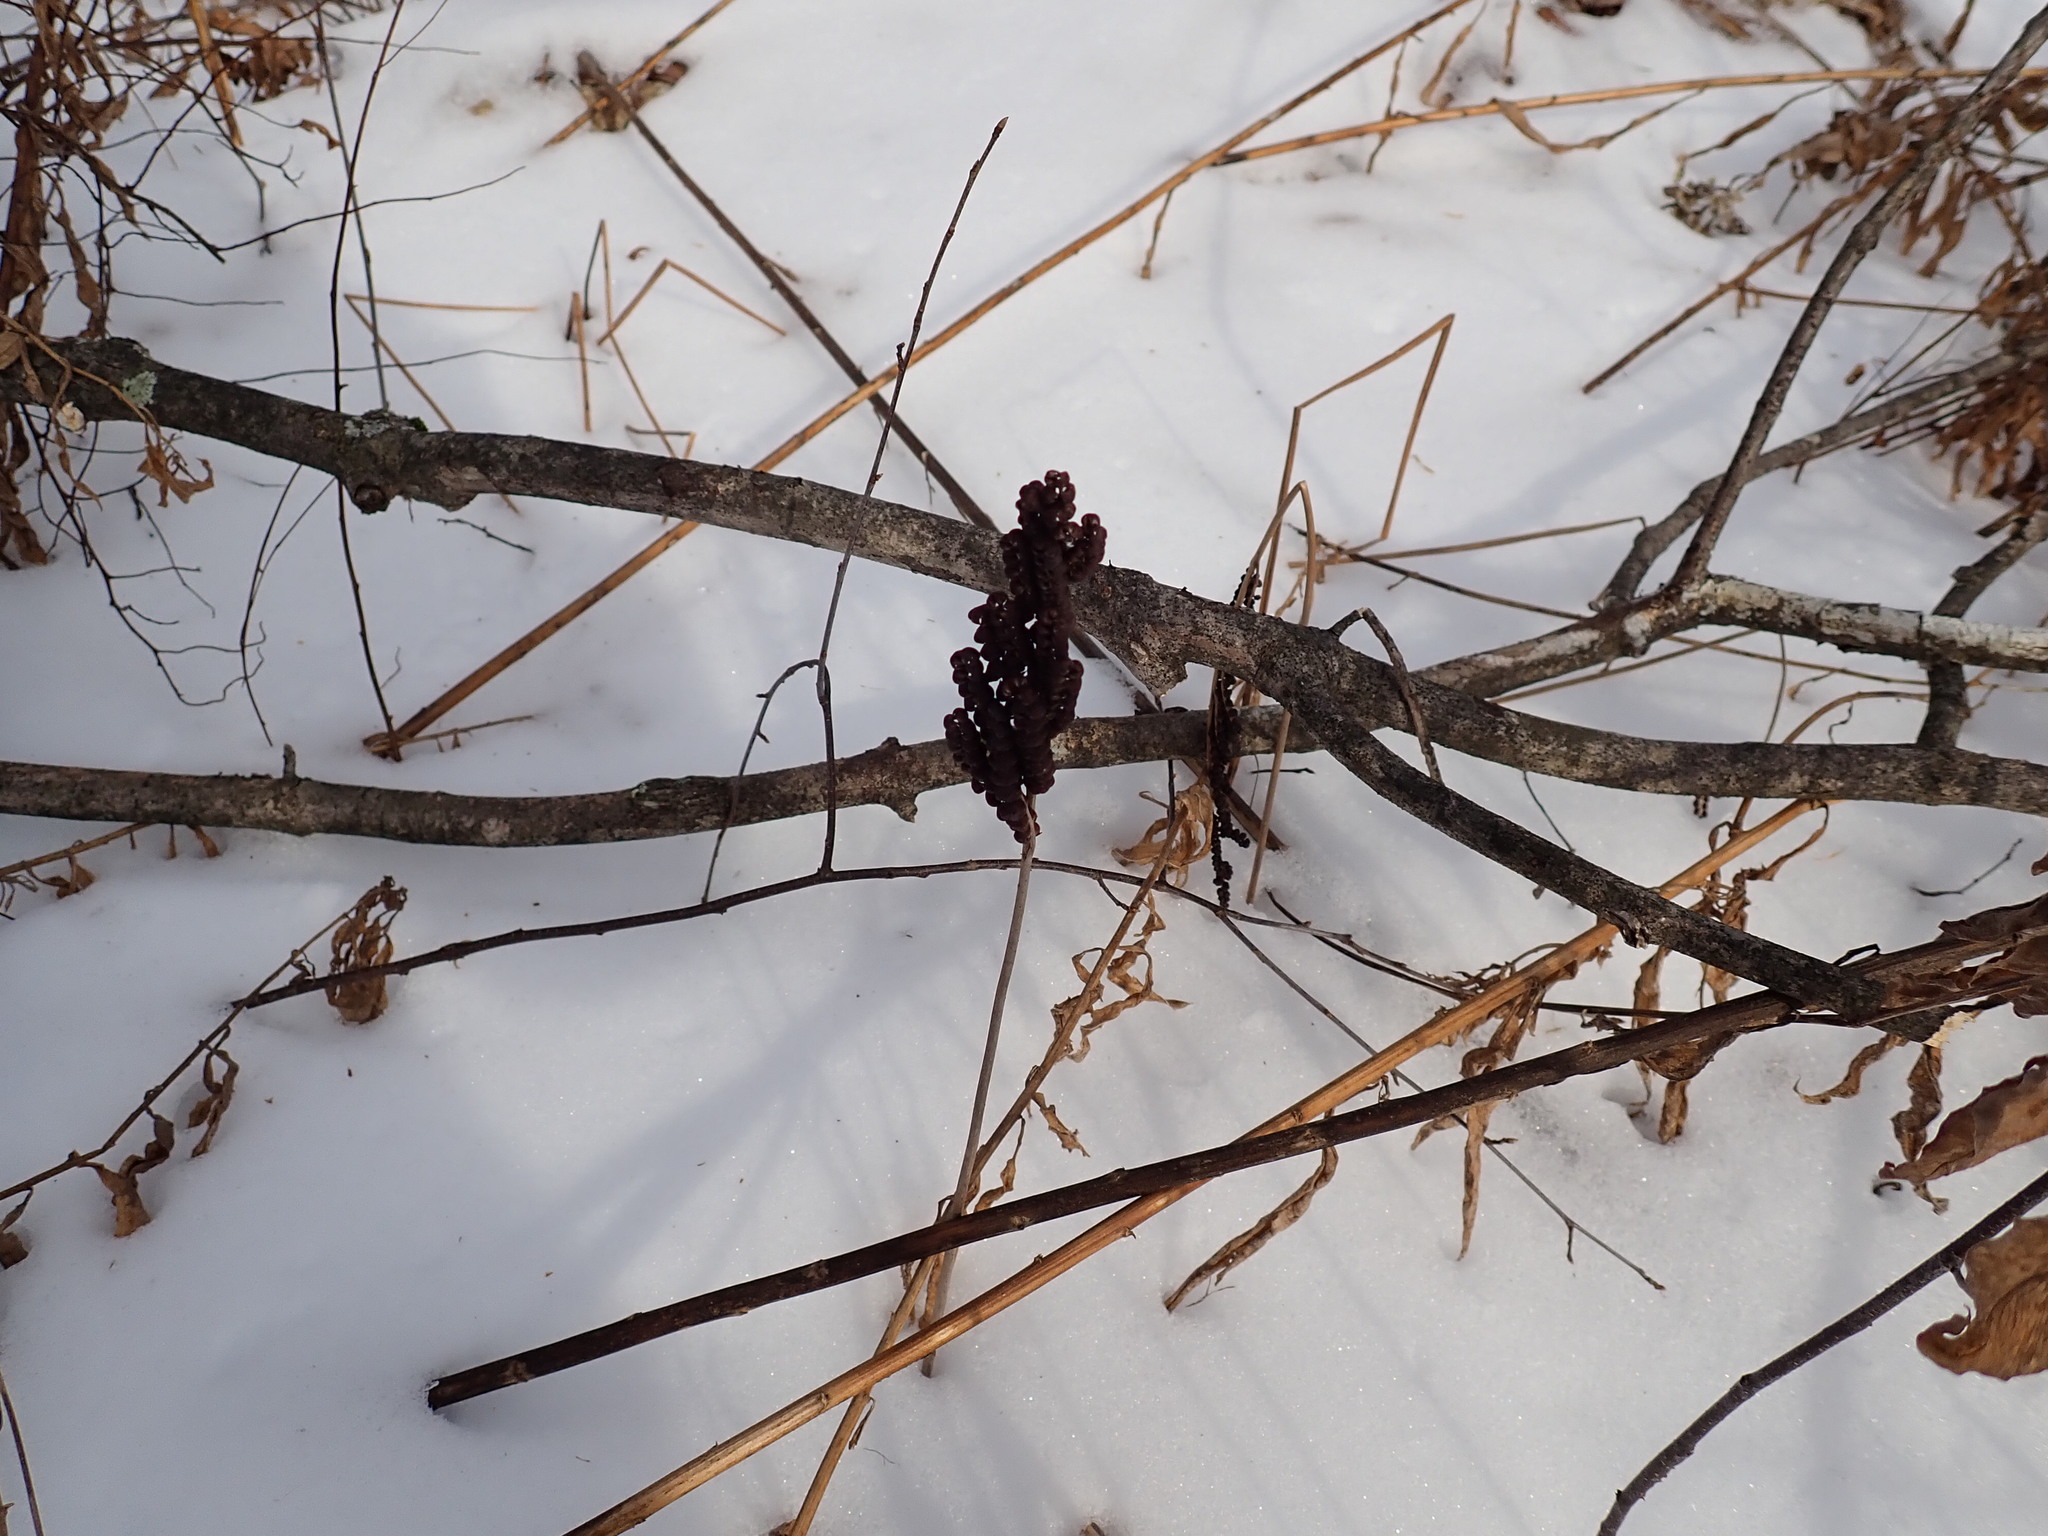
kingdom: Plantae
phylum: Tracheophyta
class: Polypodiopsida
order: Polypodiales
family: Onocleaceae
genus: Onoclea
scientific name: Onoclea sensibilis
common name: Sensitive fern
